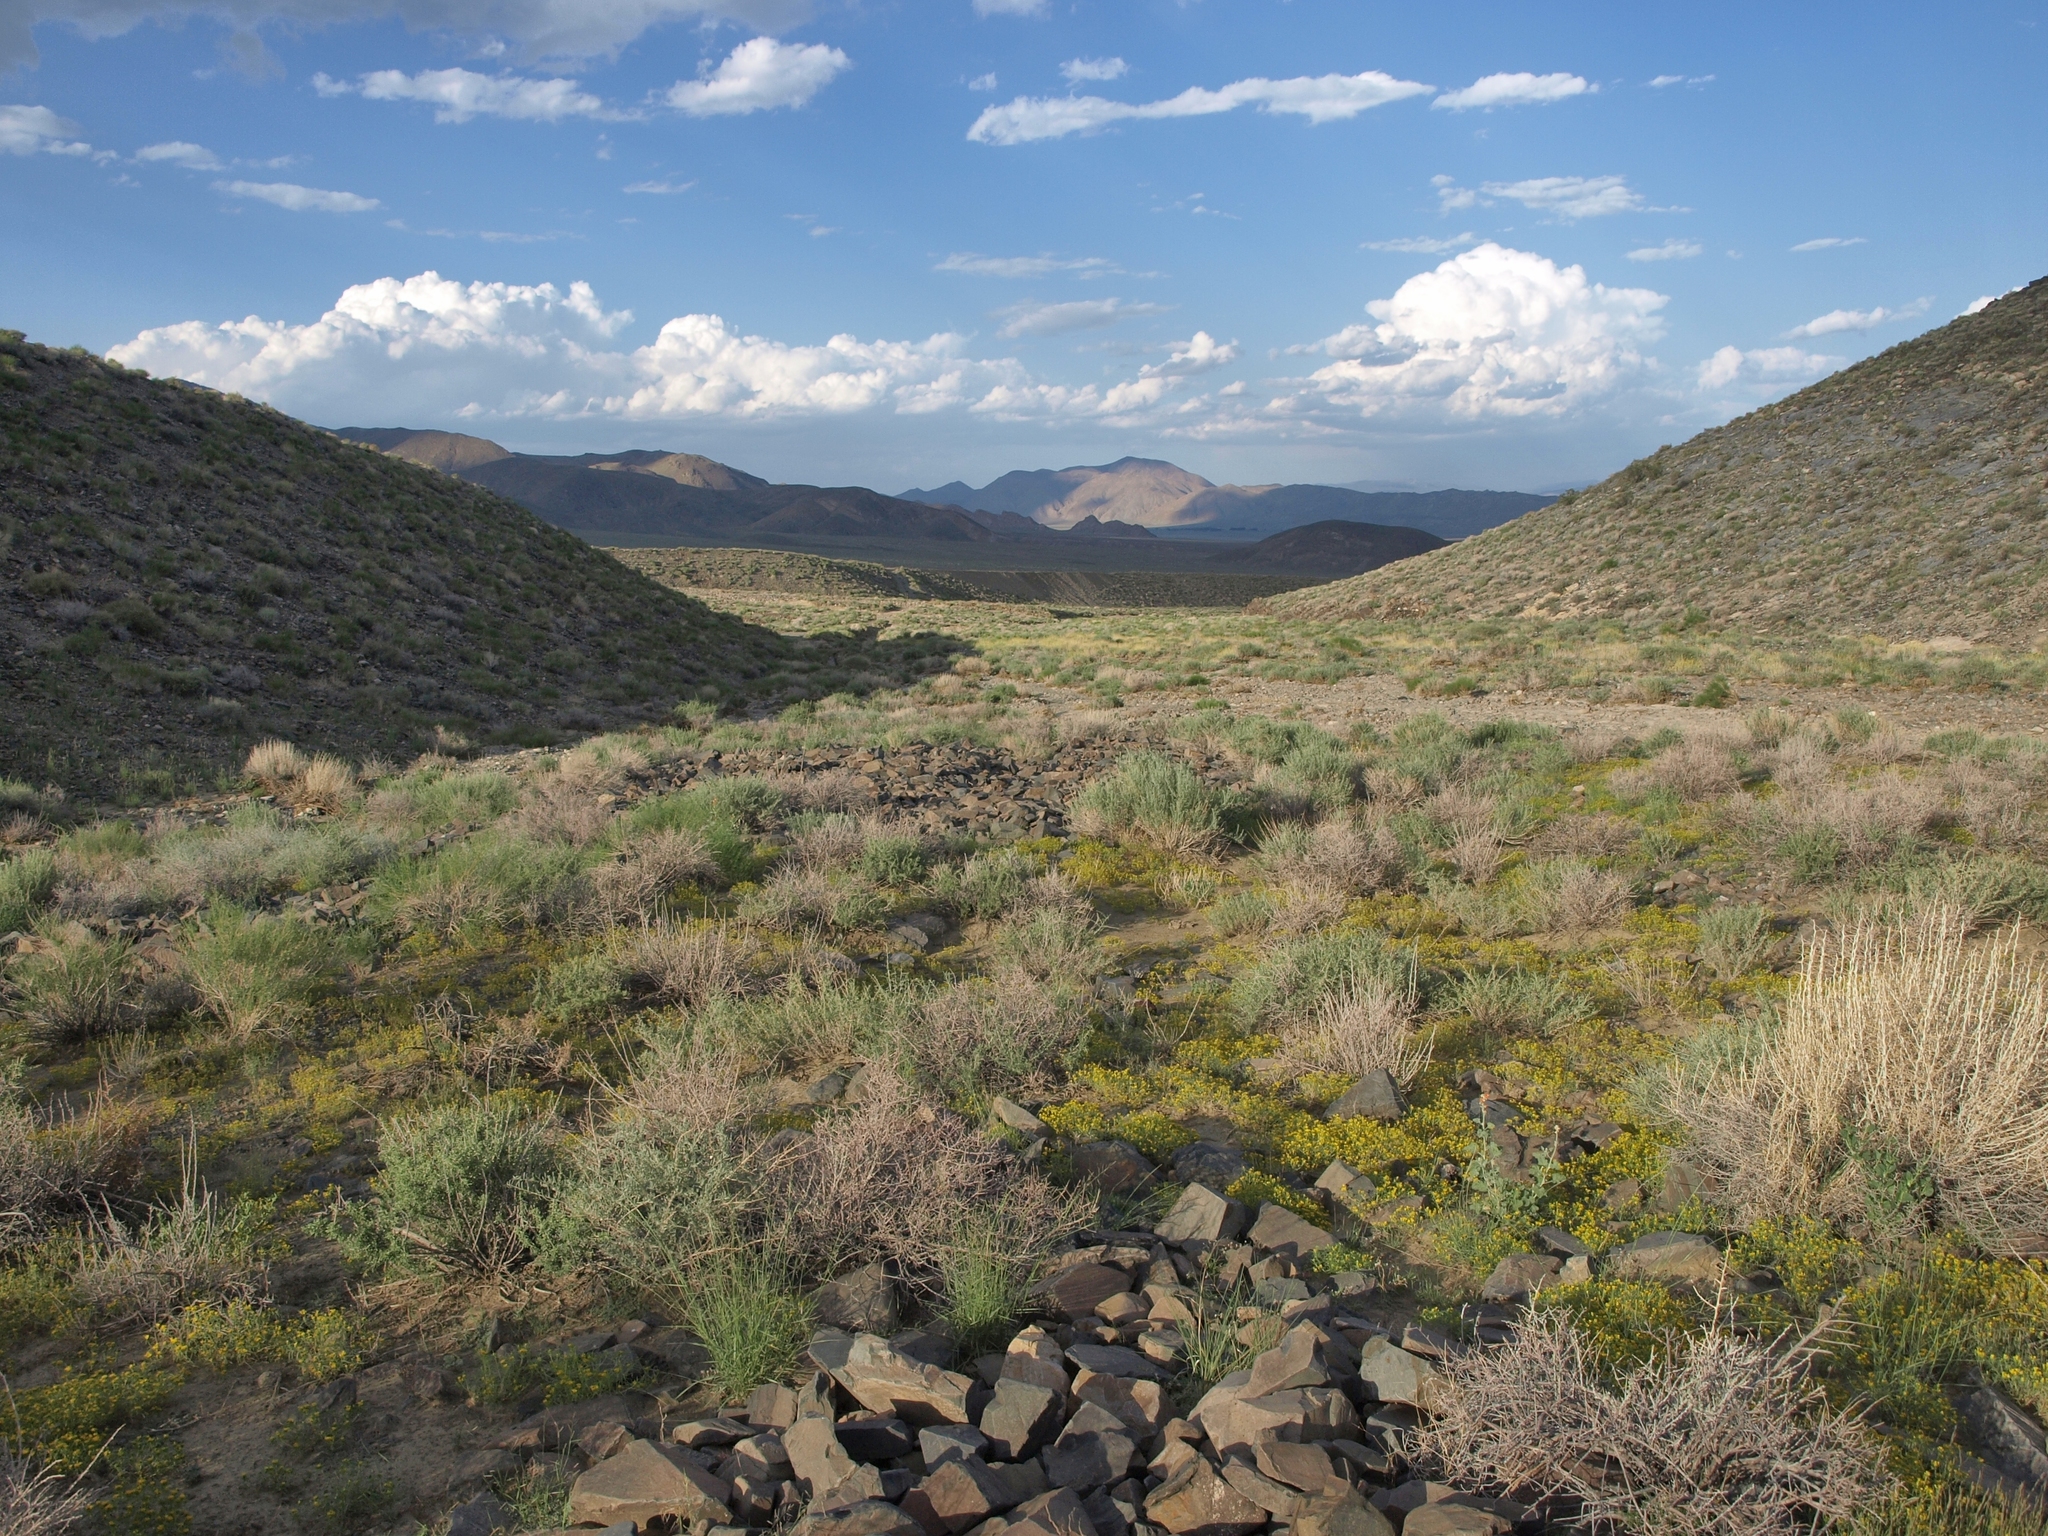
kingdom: Plantae
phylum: Tracheophyta
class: Magnoliopsida
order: Asterales
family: Asteraceae
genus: Pectis
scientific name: Pectis papposa
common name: Many-bristle chinchweed
